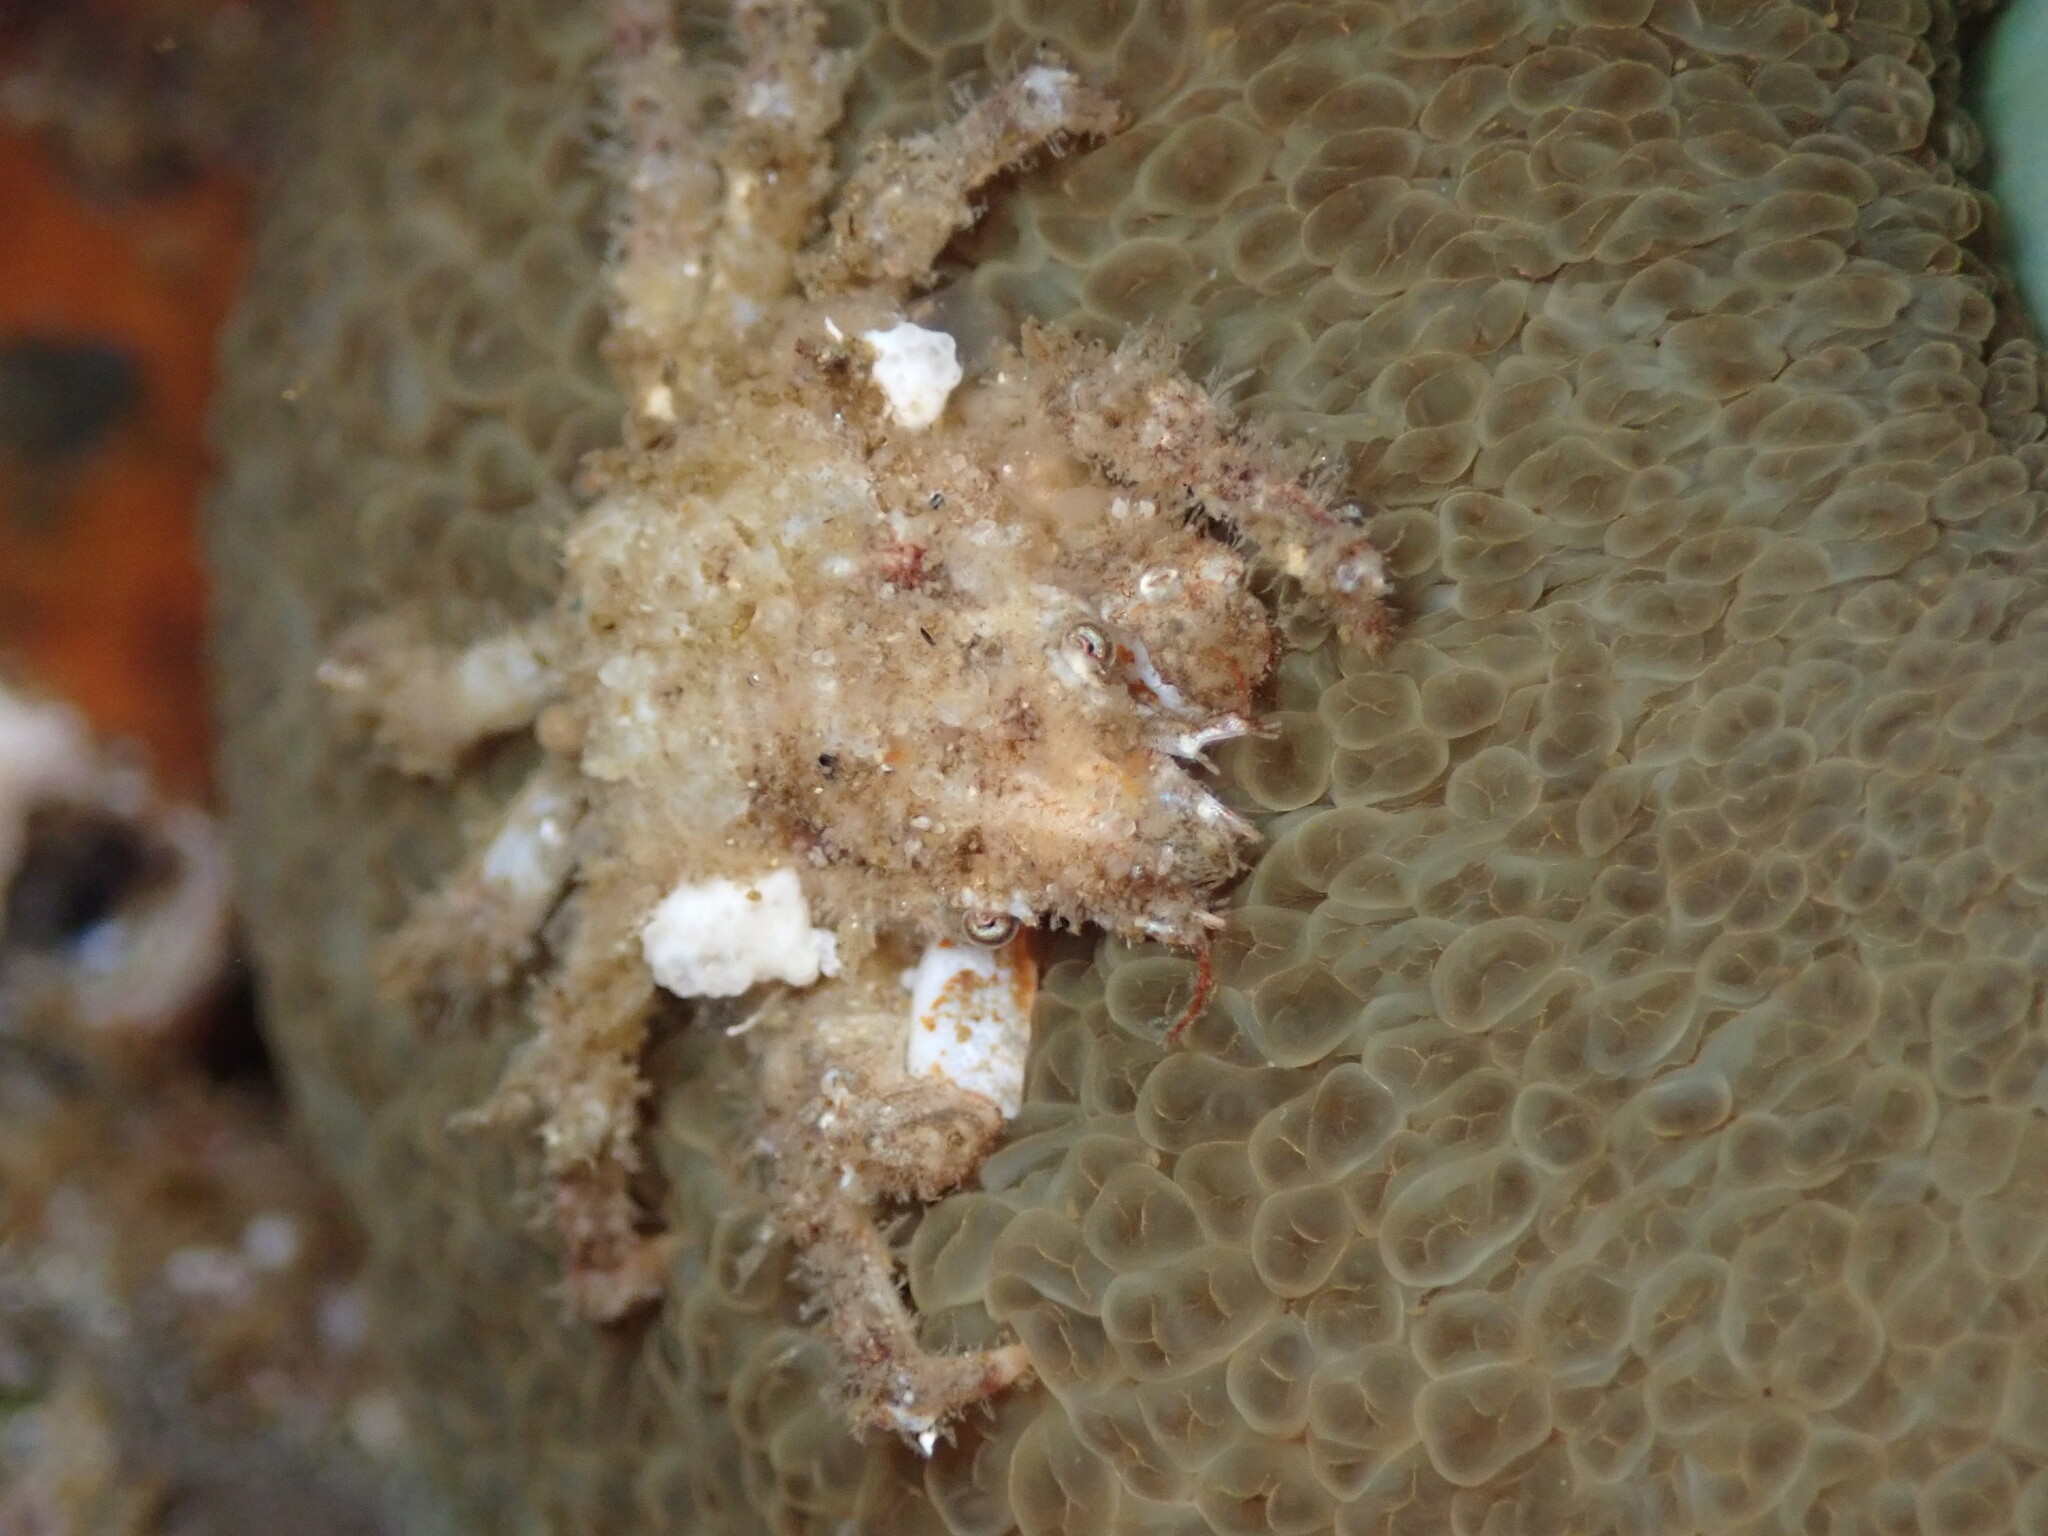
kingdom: Animalia
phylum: Arthropoda
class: Malacostraca
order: Decapoda
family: Epialtidae
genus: Scyra
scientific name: Scyra acutifrons
